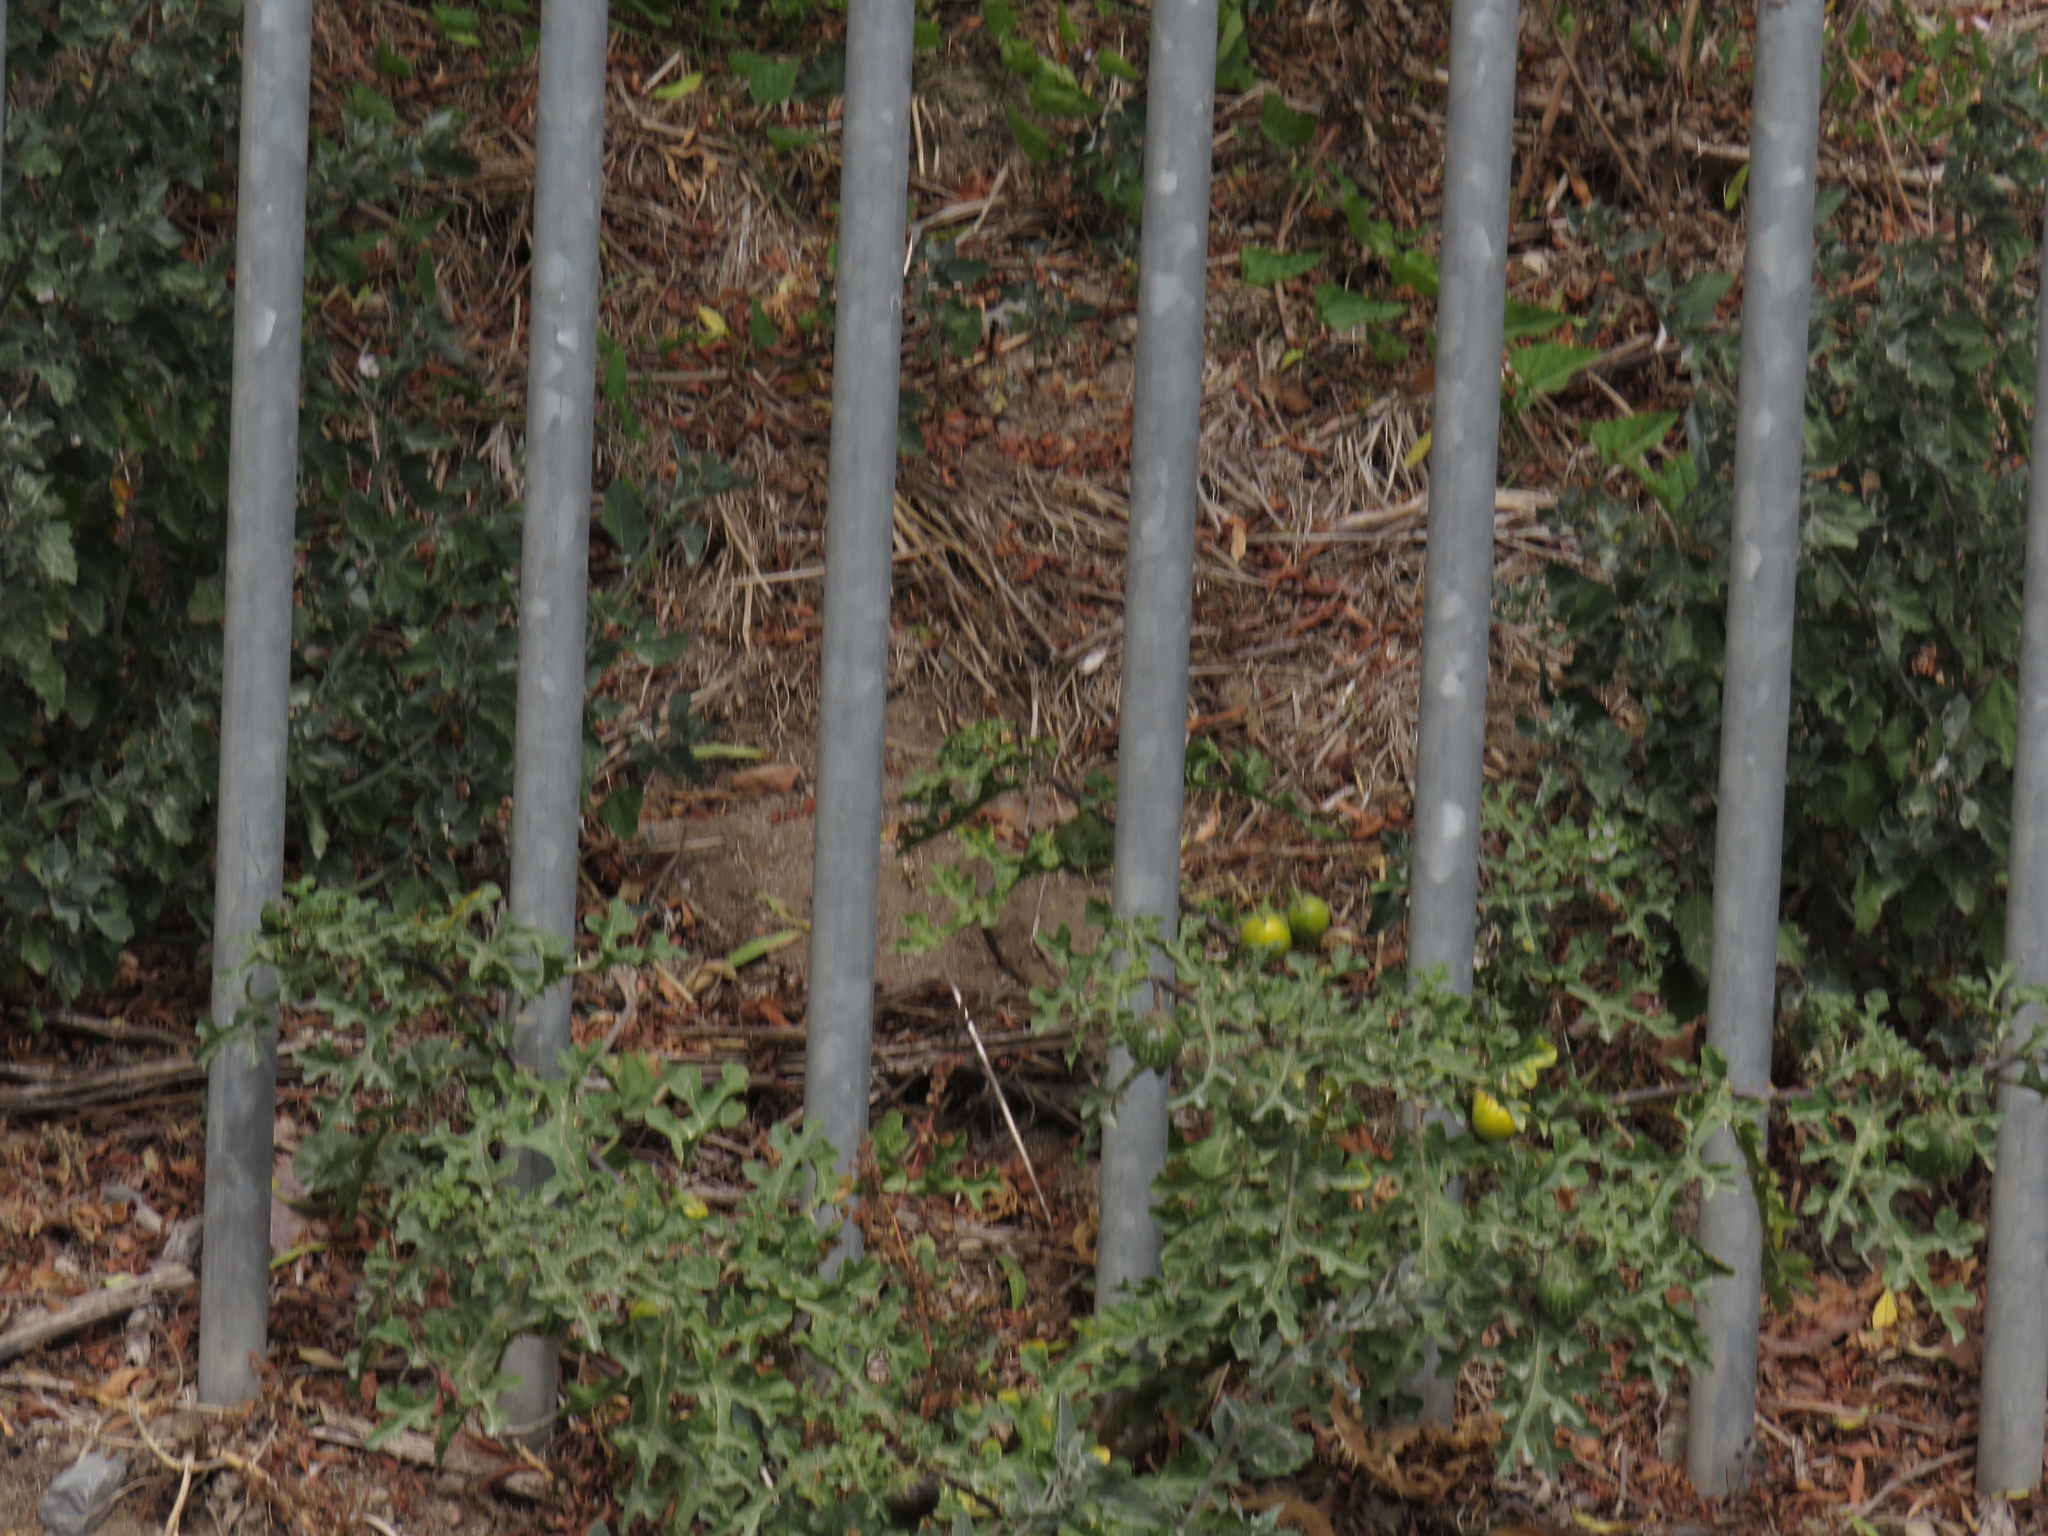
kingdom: Plantae
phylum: Tracheophyta
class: Magnoliopsida
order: Solanales
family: Solanaceae
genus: Solanum
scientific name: Solanum linnaeanum
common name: Nightshade
